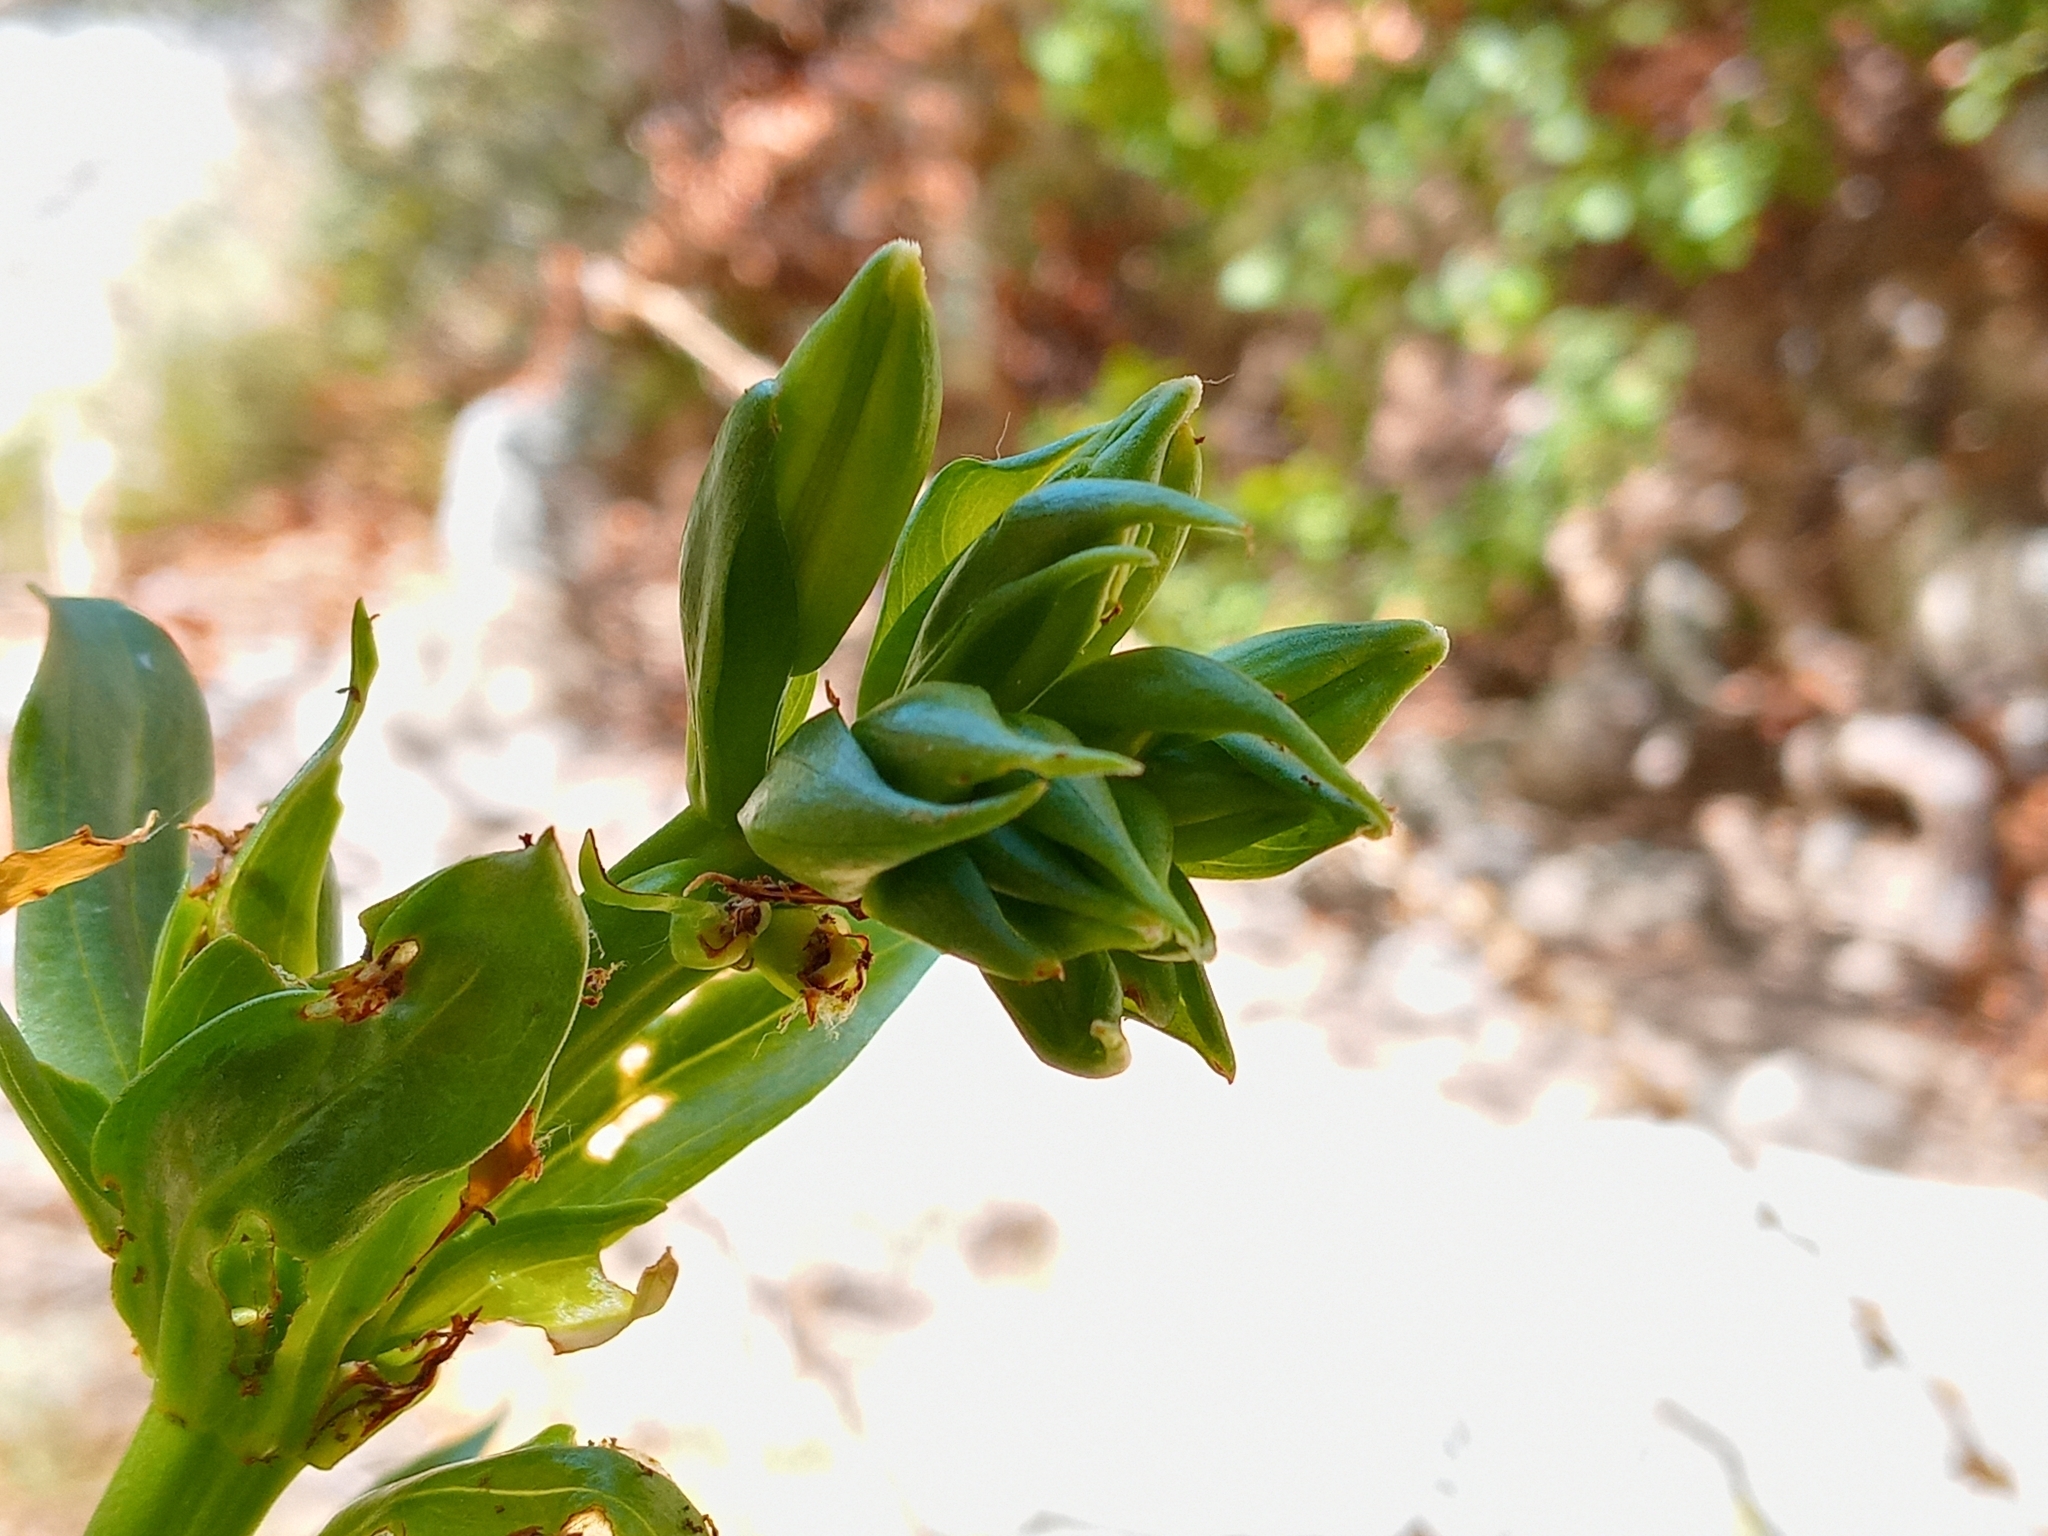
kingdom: Plantae
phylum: Tracheophyta
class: Liliopsida
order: Liliales
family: Liliaceae
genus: Lilium
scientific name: Lilium humboldtii
